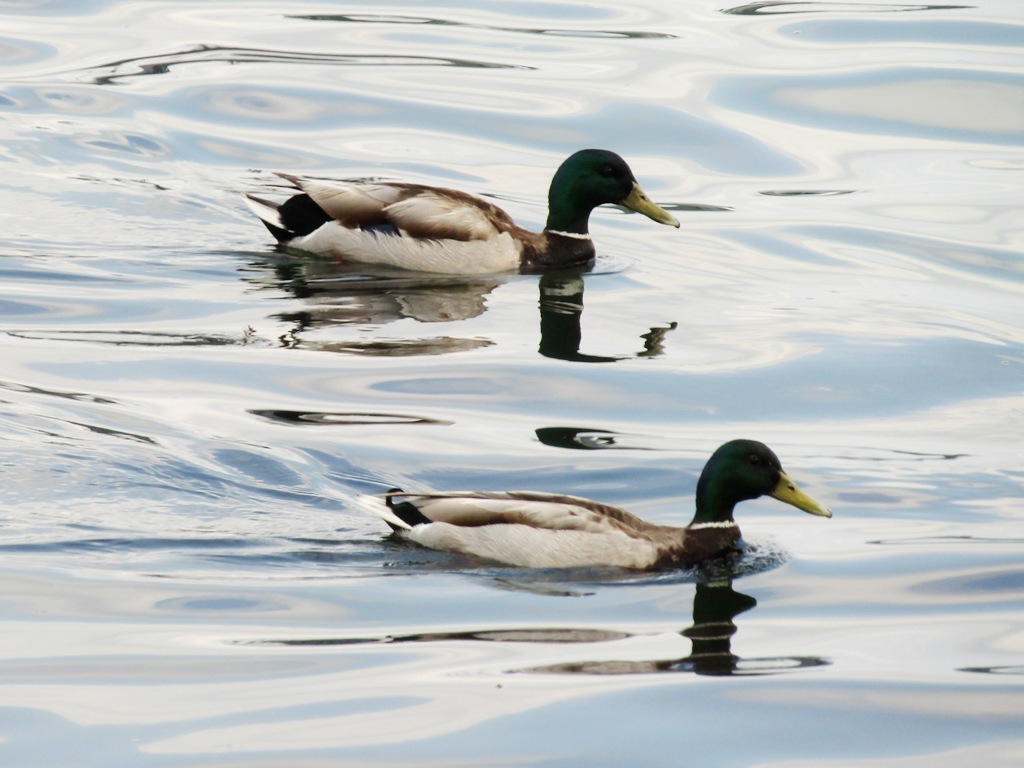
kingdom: Animalia
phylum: Chordata
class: Aves
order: Anseriformes
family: Anatidae
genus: Anas
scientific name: Anas platyrhynchos
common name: Mallard
